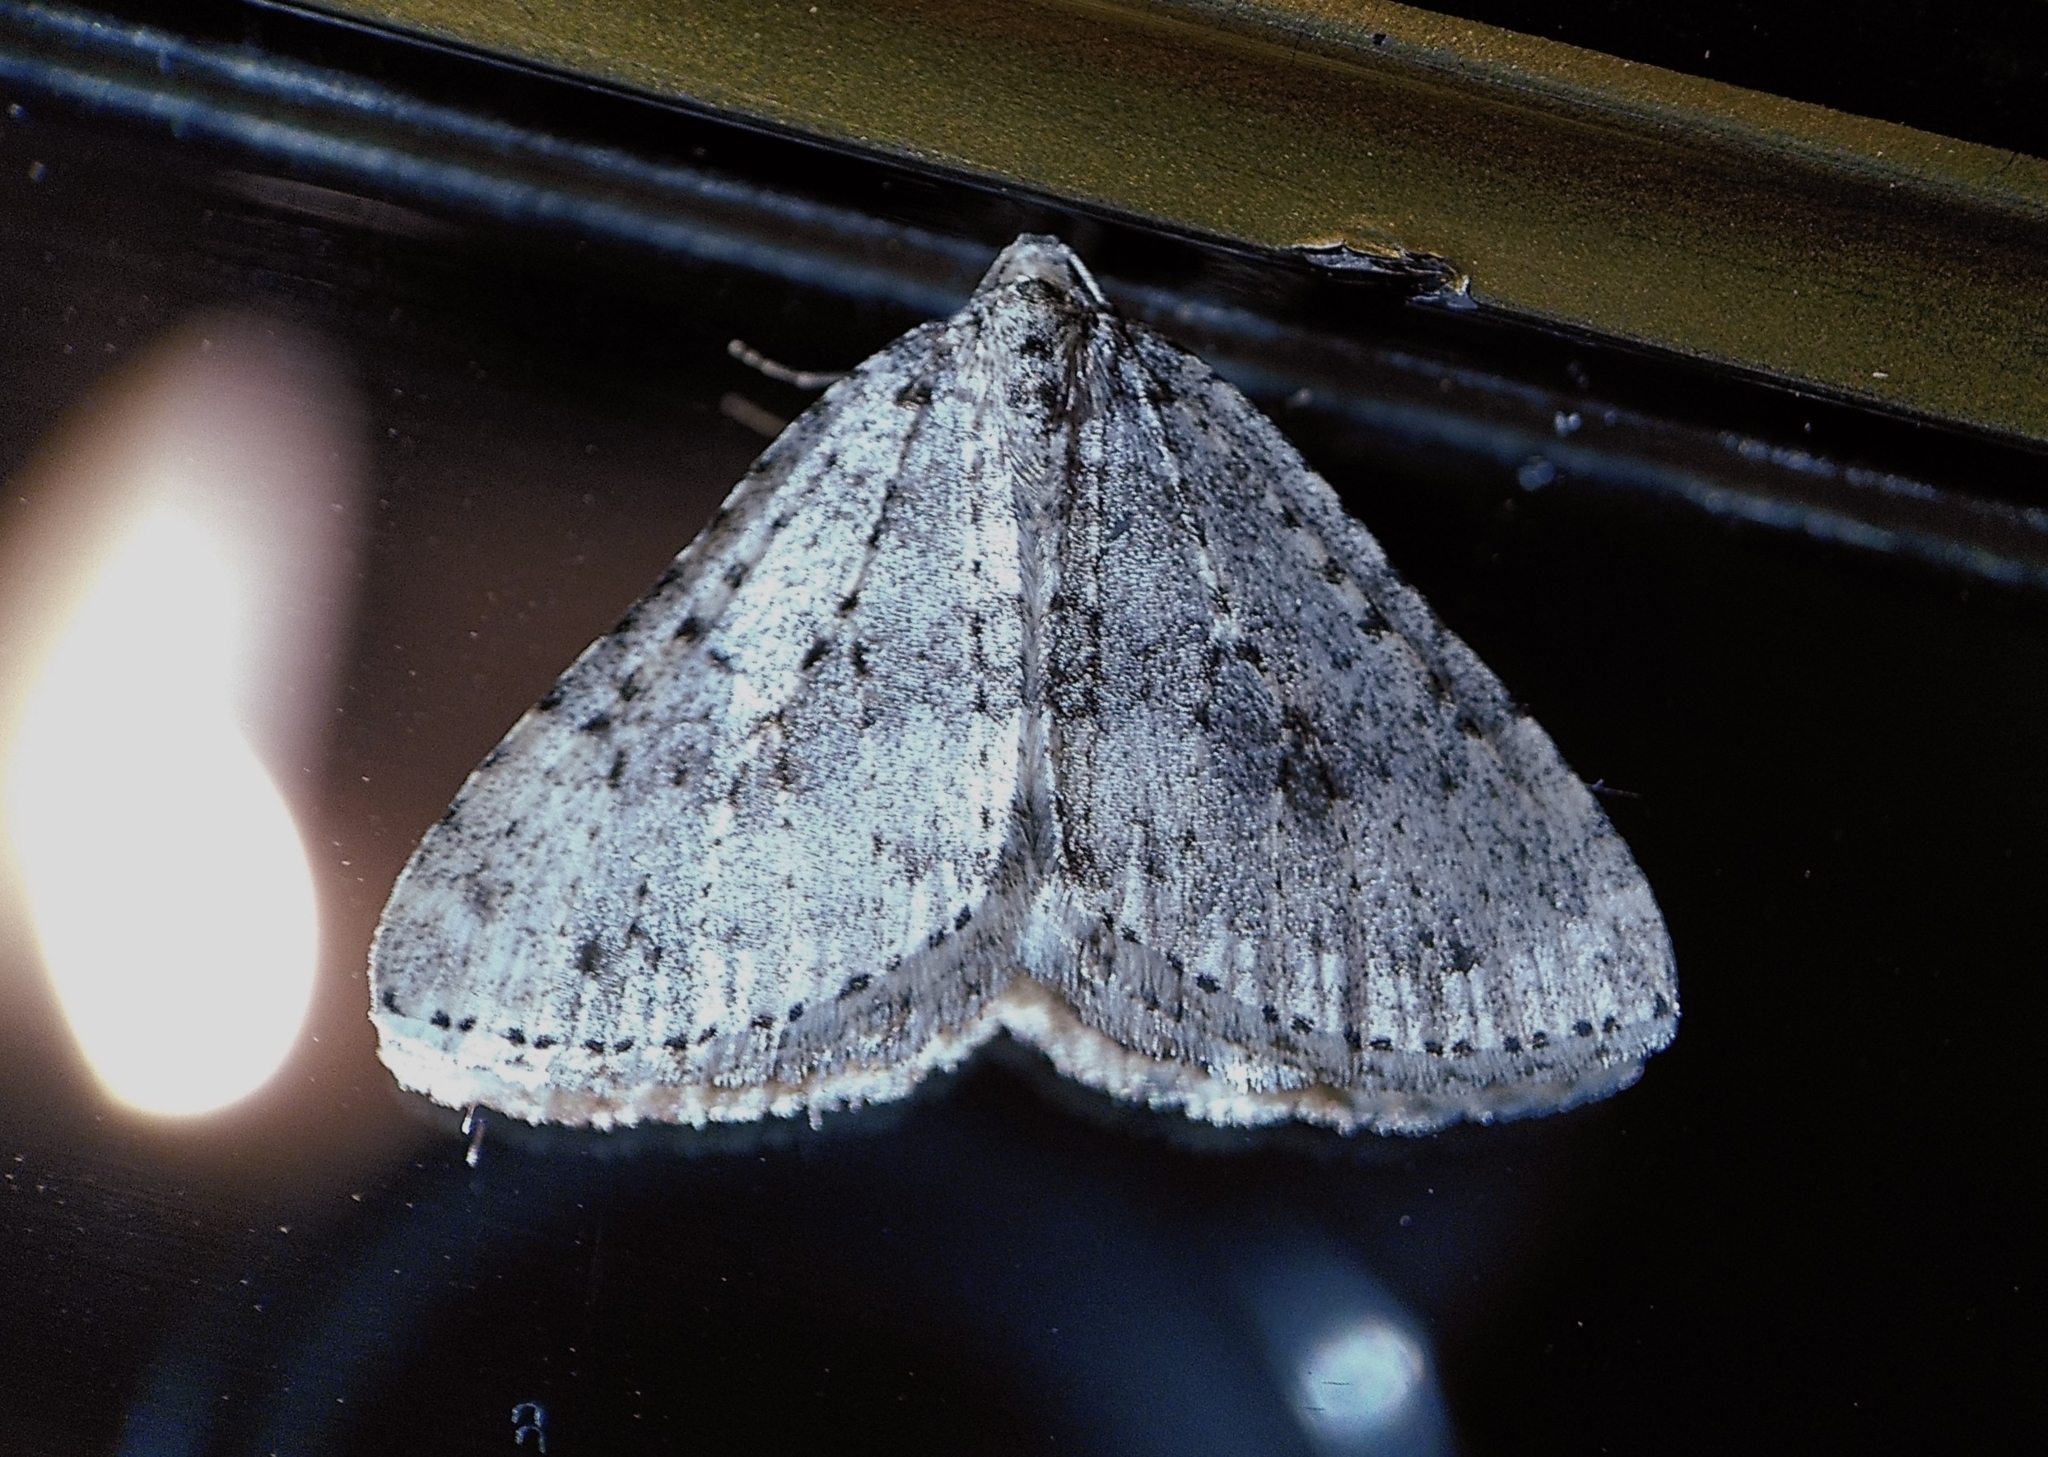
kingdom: Animalia
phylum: Arthropoda
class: Insecta
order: Lepidoptera
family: Geometridae
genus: Colostygia
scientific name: Colostygia multistrigaria
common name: Mottled grey
